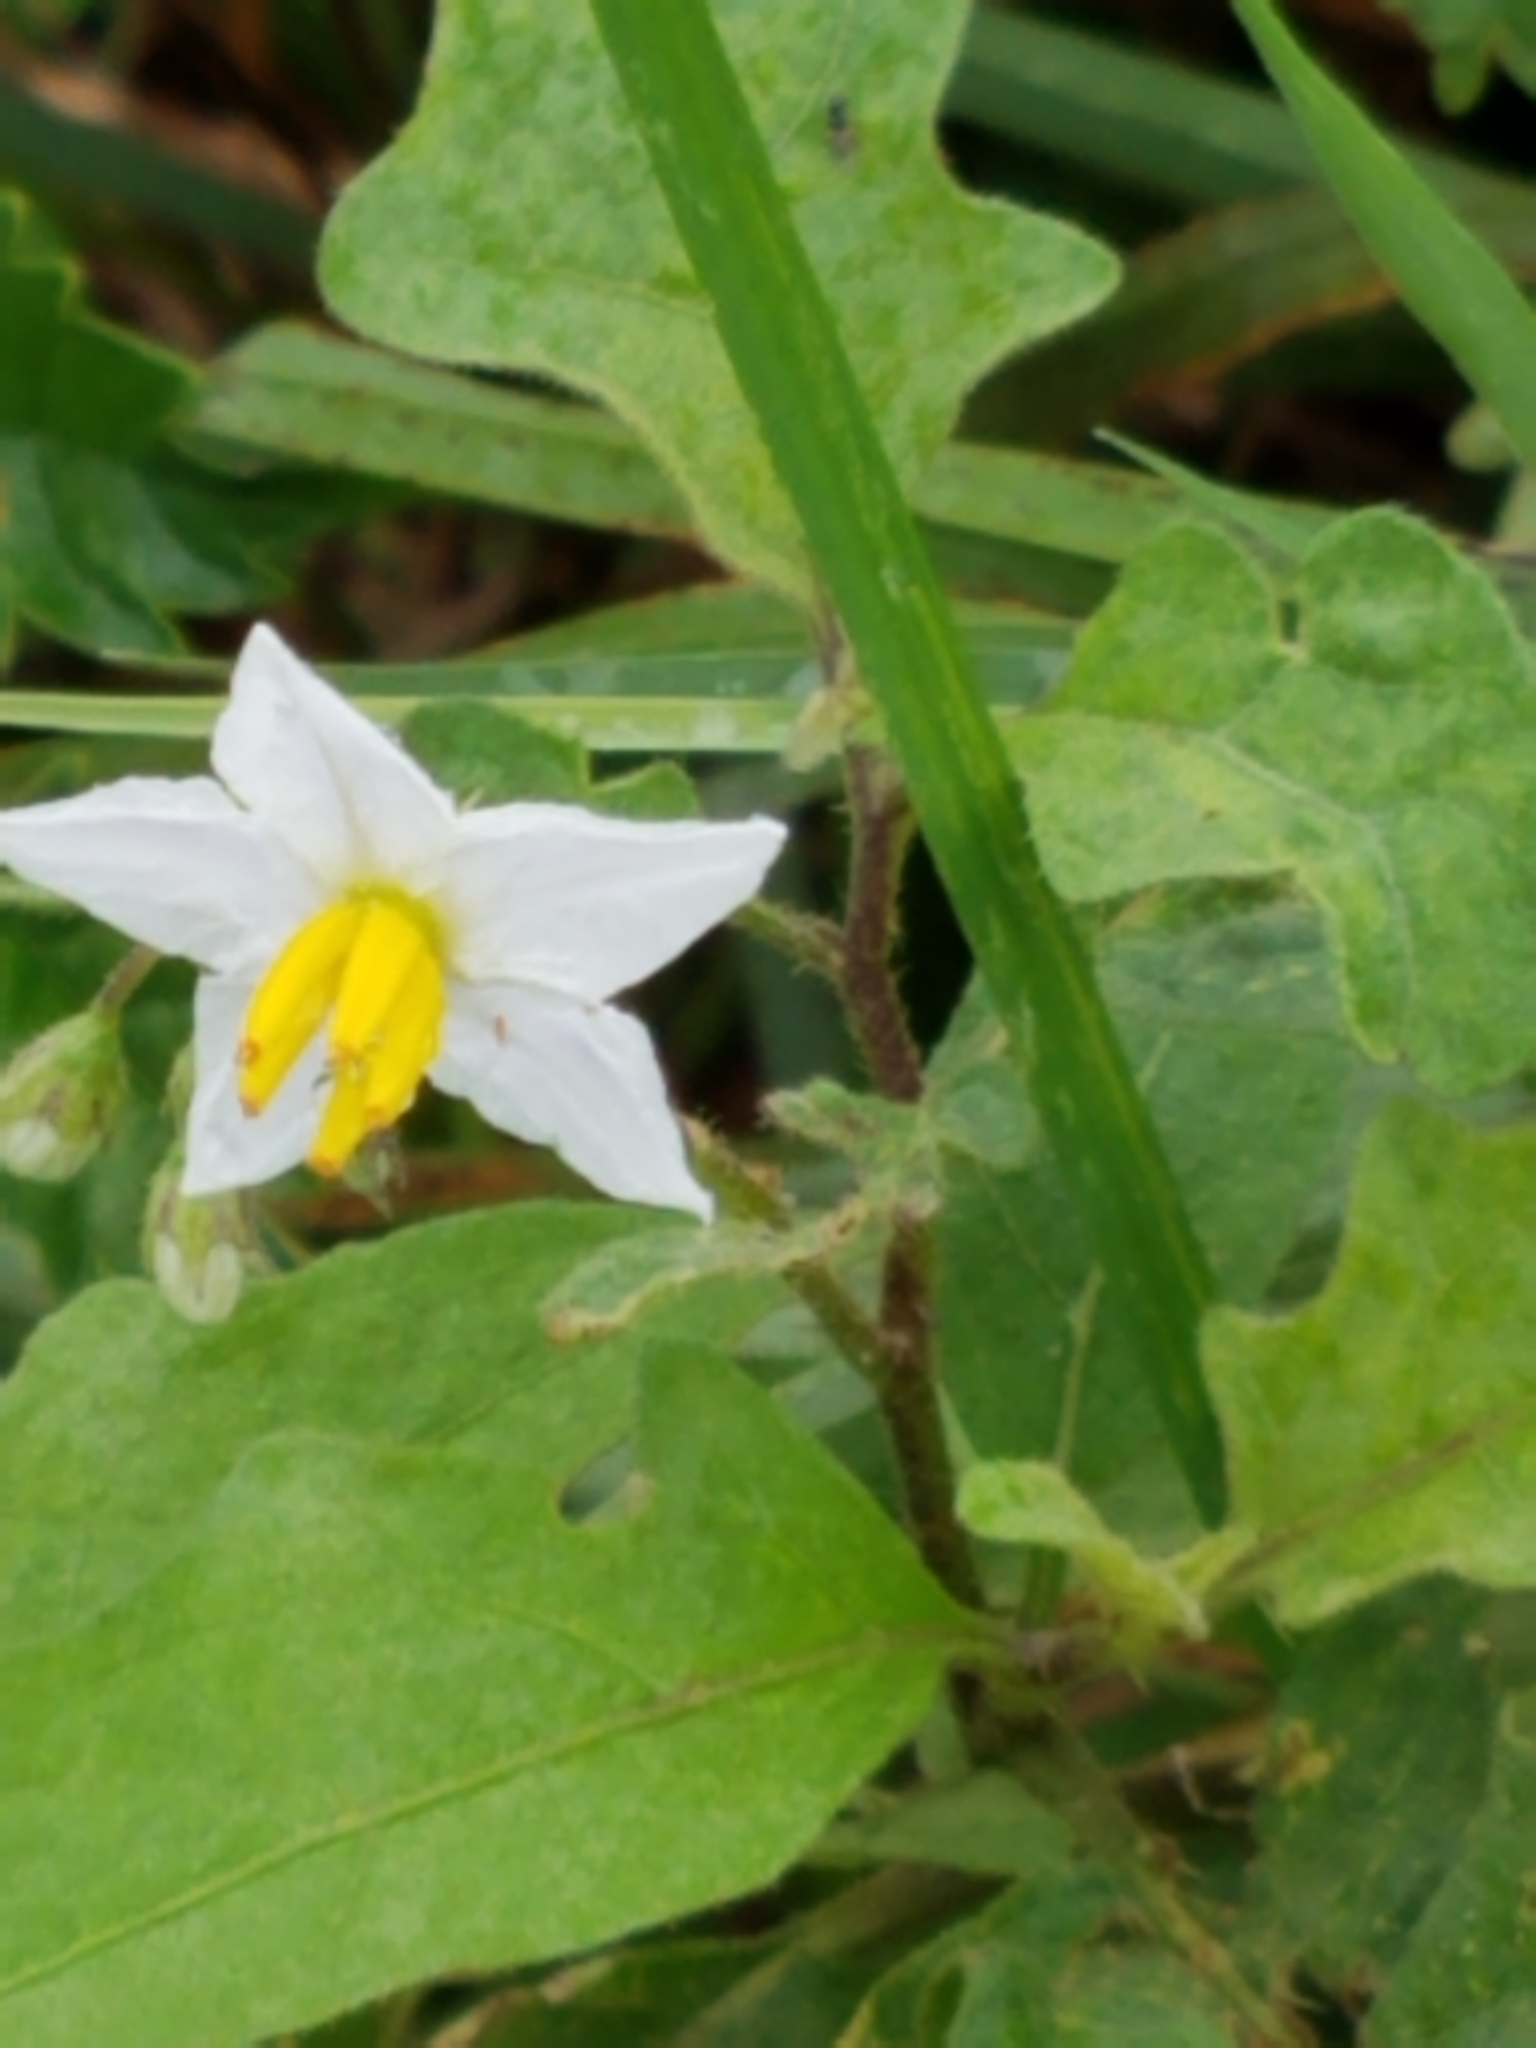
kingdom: Plantae
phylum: Tracheophyta
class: Magnoliopsida
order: Solanales
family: Solanaceae
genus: Solanum
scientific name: Solanum carolinense
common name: Horse-nettle
